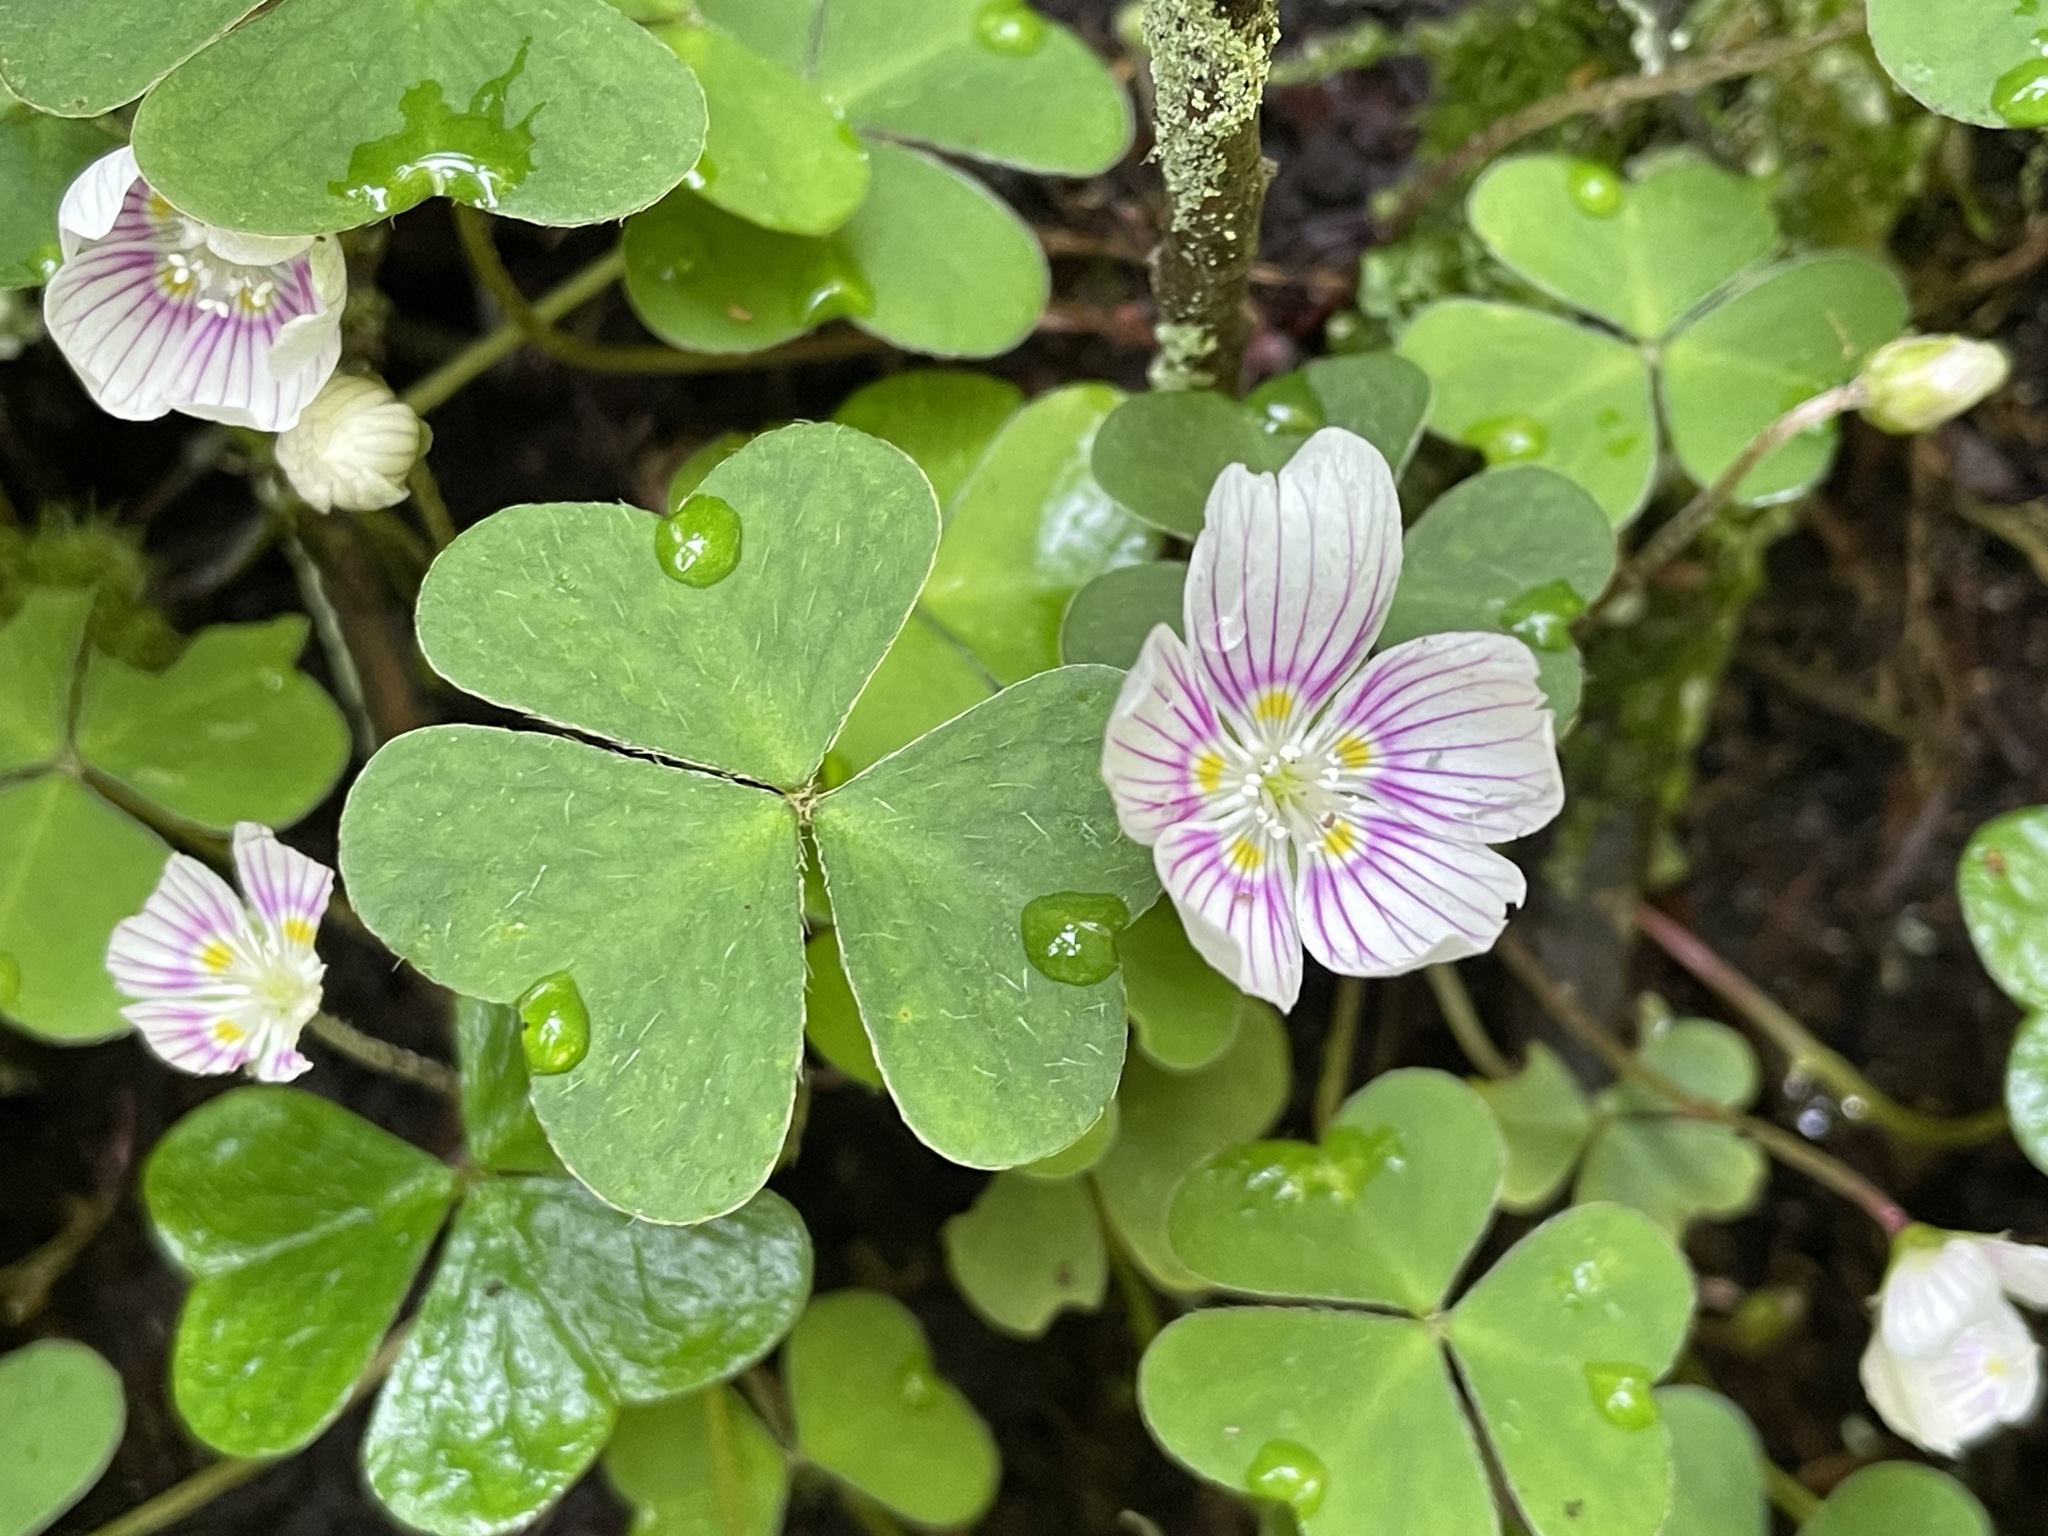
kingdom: Plantae
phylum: Tracheophyta
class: Magnoliopsida
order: Oxalidales
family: Oxalidaceae
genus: Oxalis
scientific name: Oxalis montana
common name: American wood-sorrel
